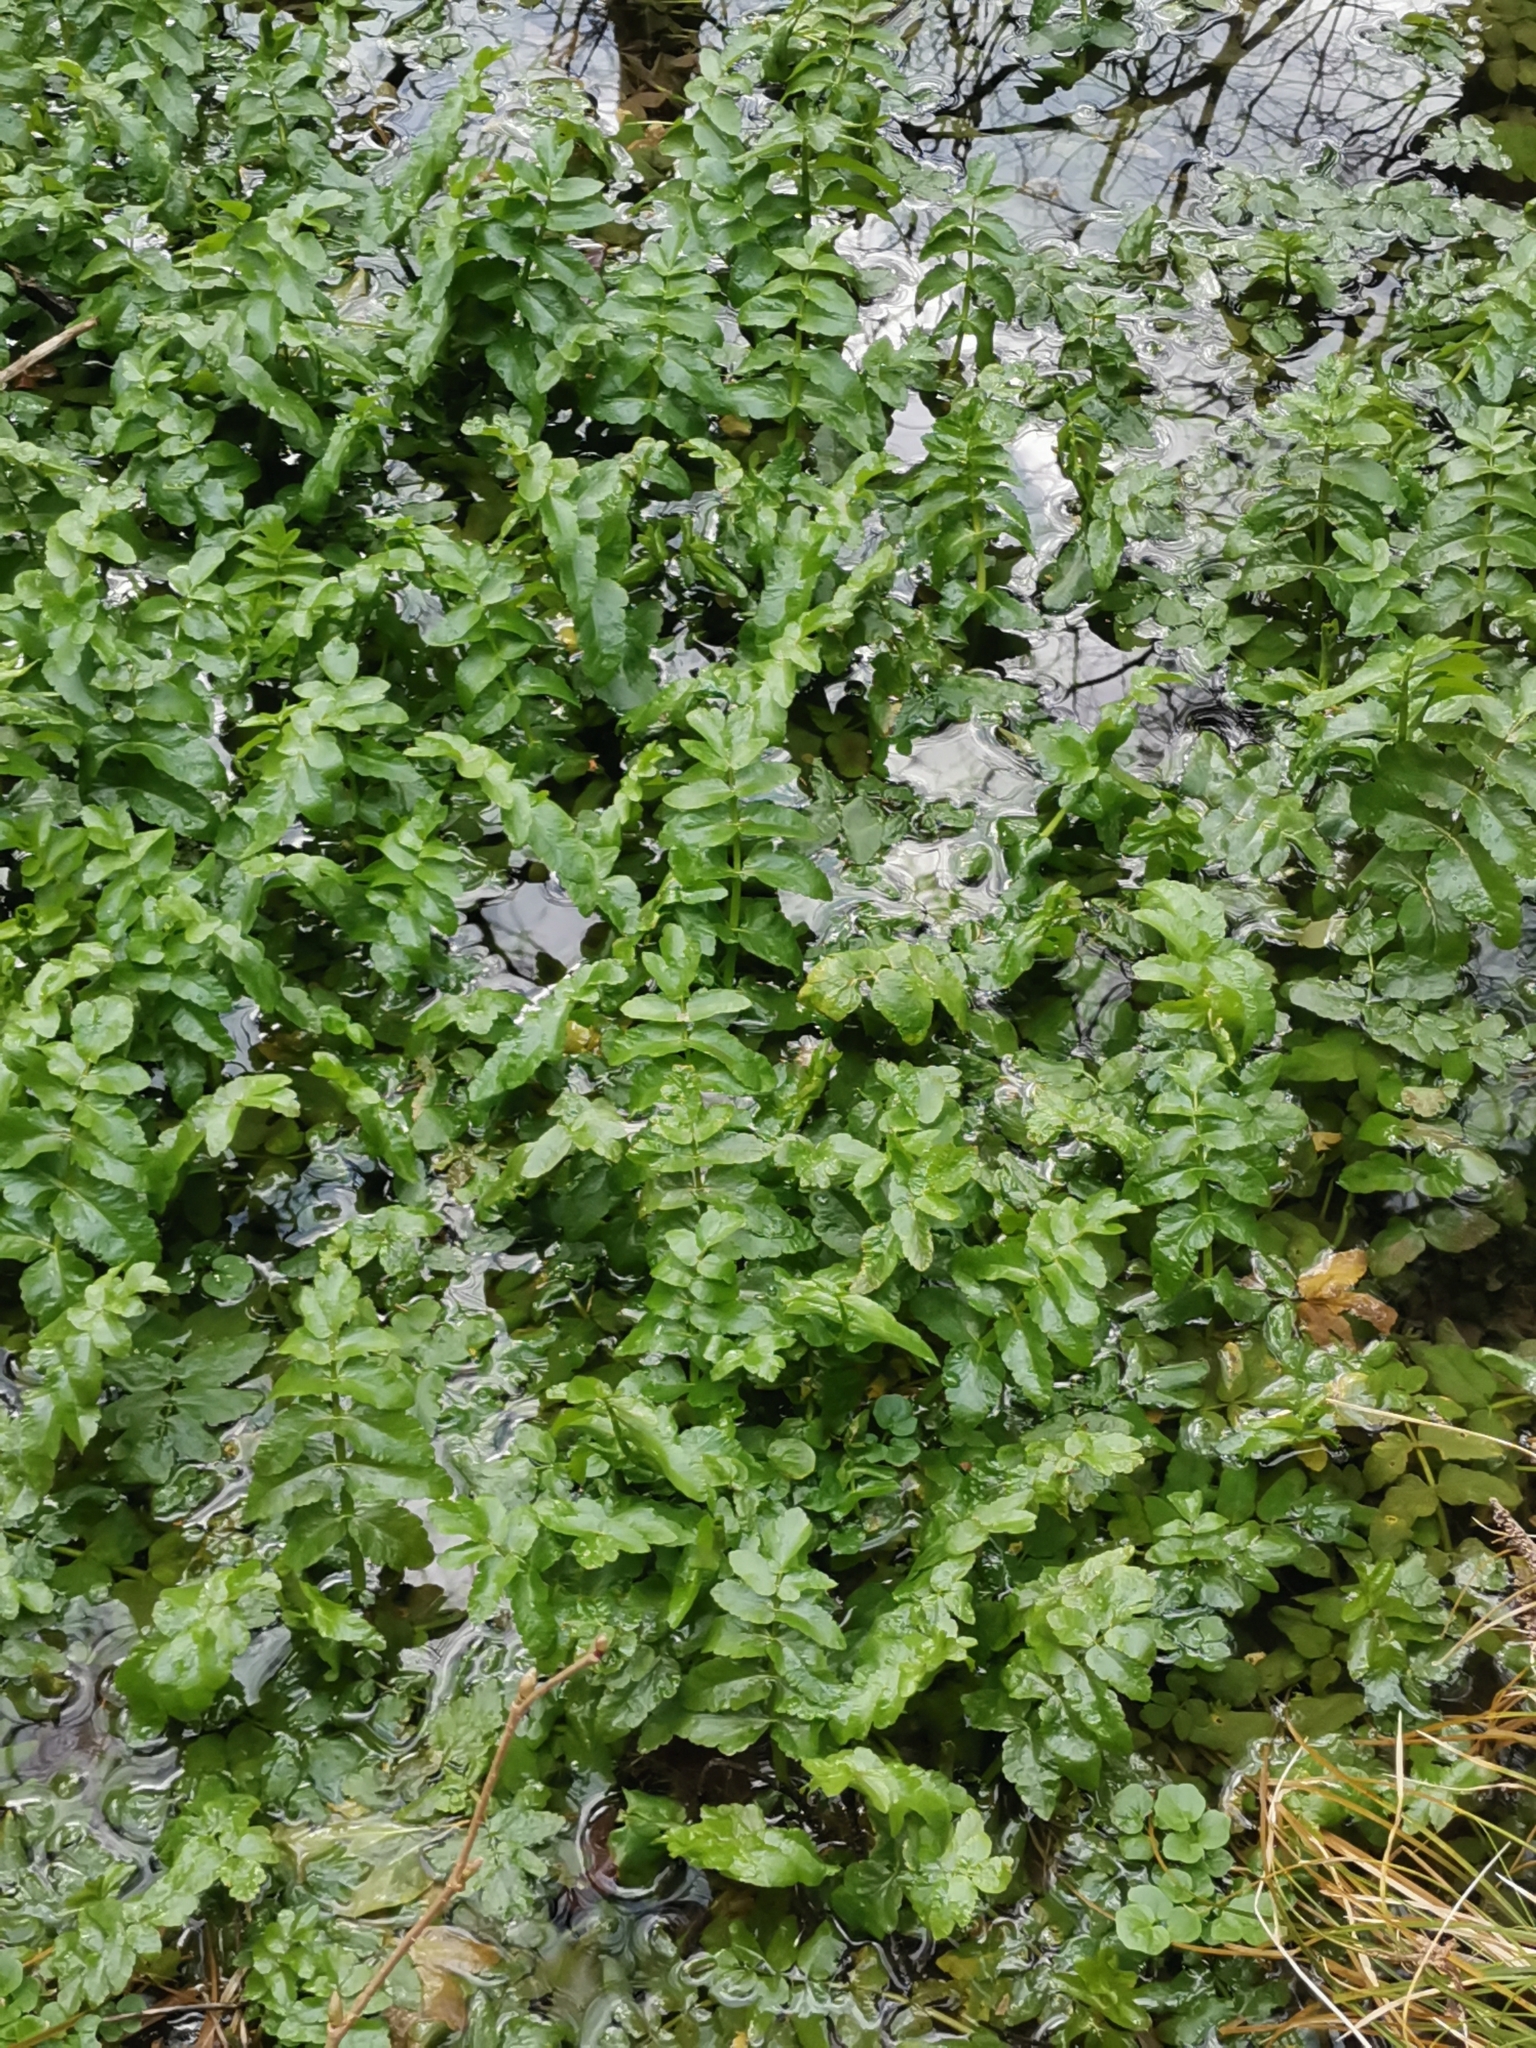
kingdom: Plantae
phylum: Tracheophyta
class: Magnoliopsida
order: Apiales
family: Apiaceae
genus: Berula
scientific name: Berula erecta
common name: Lesser water-parsnip
